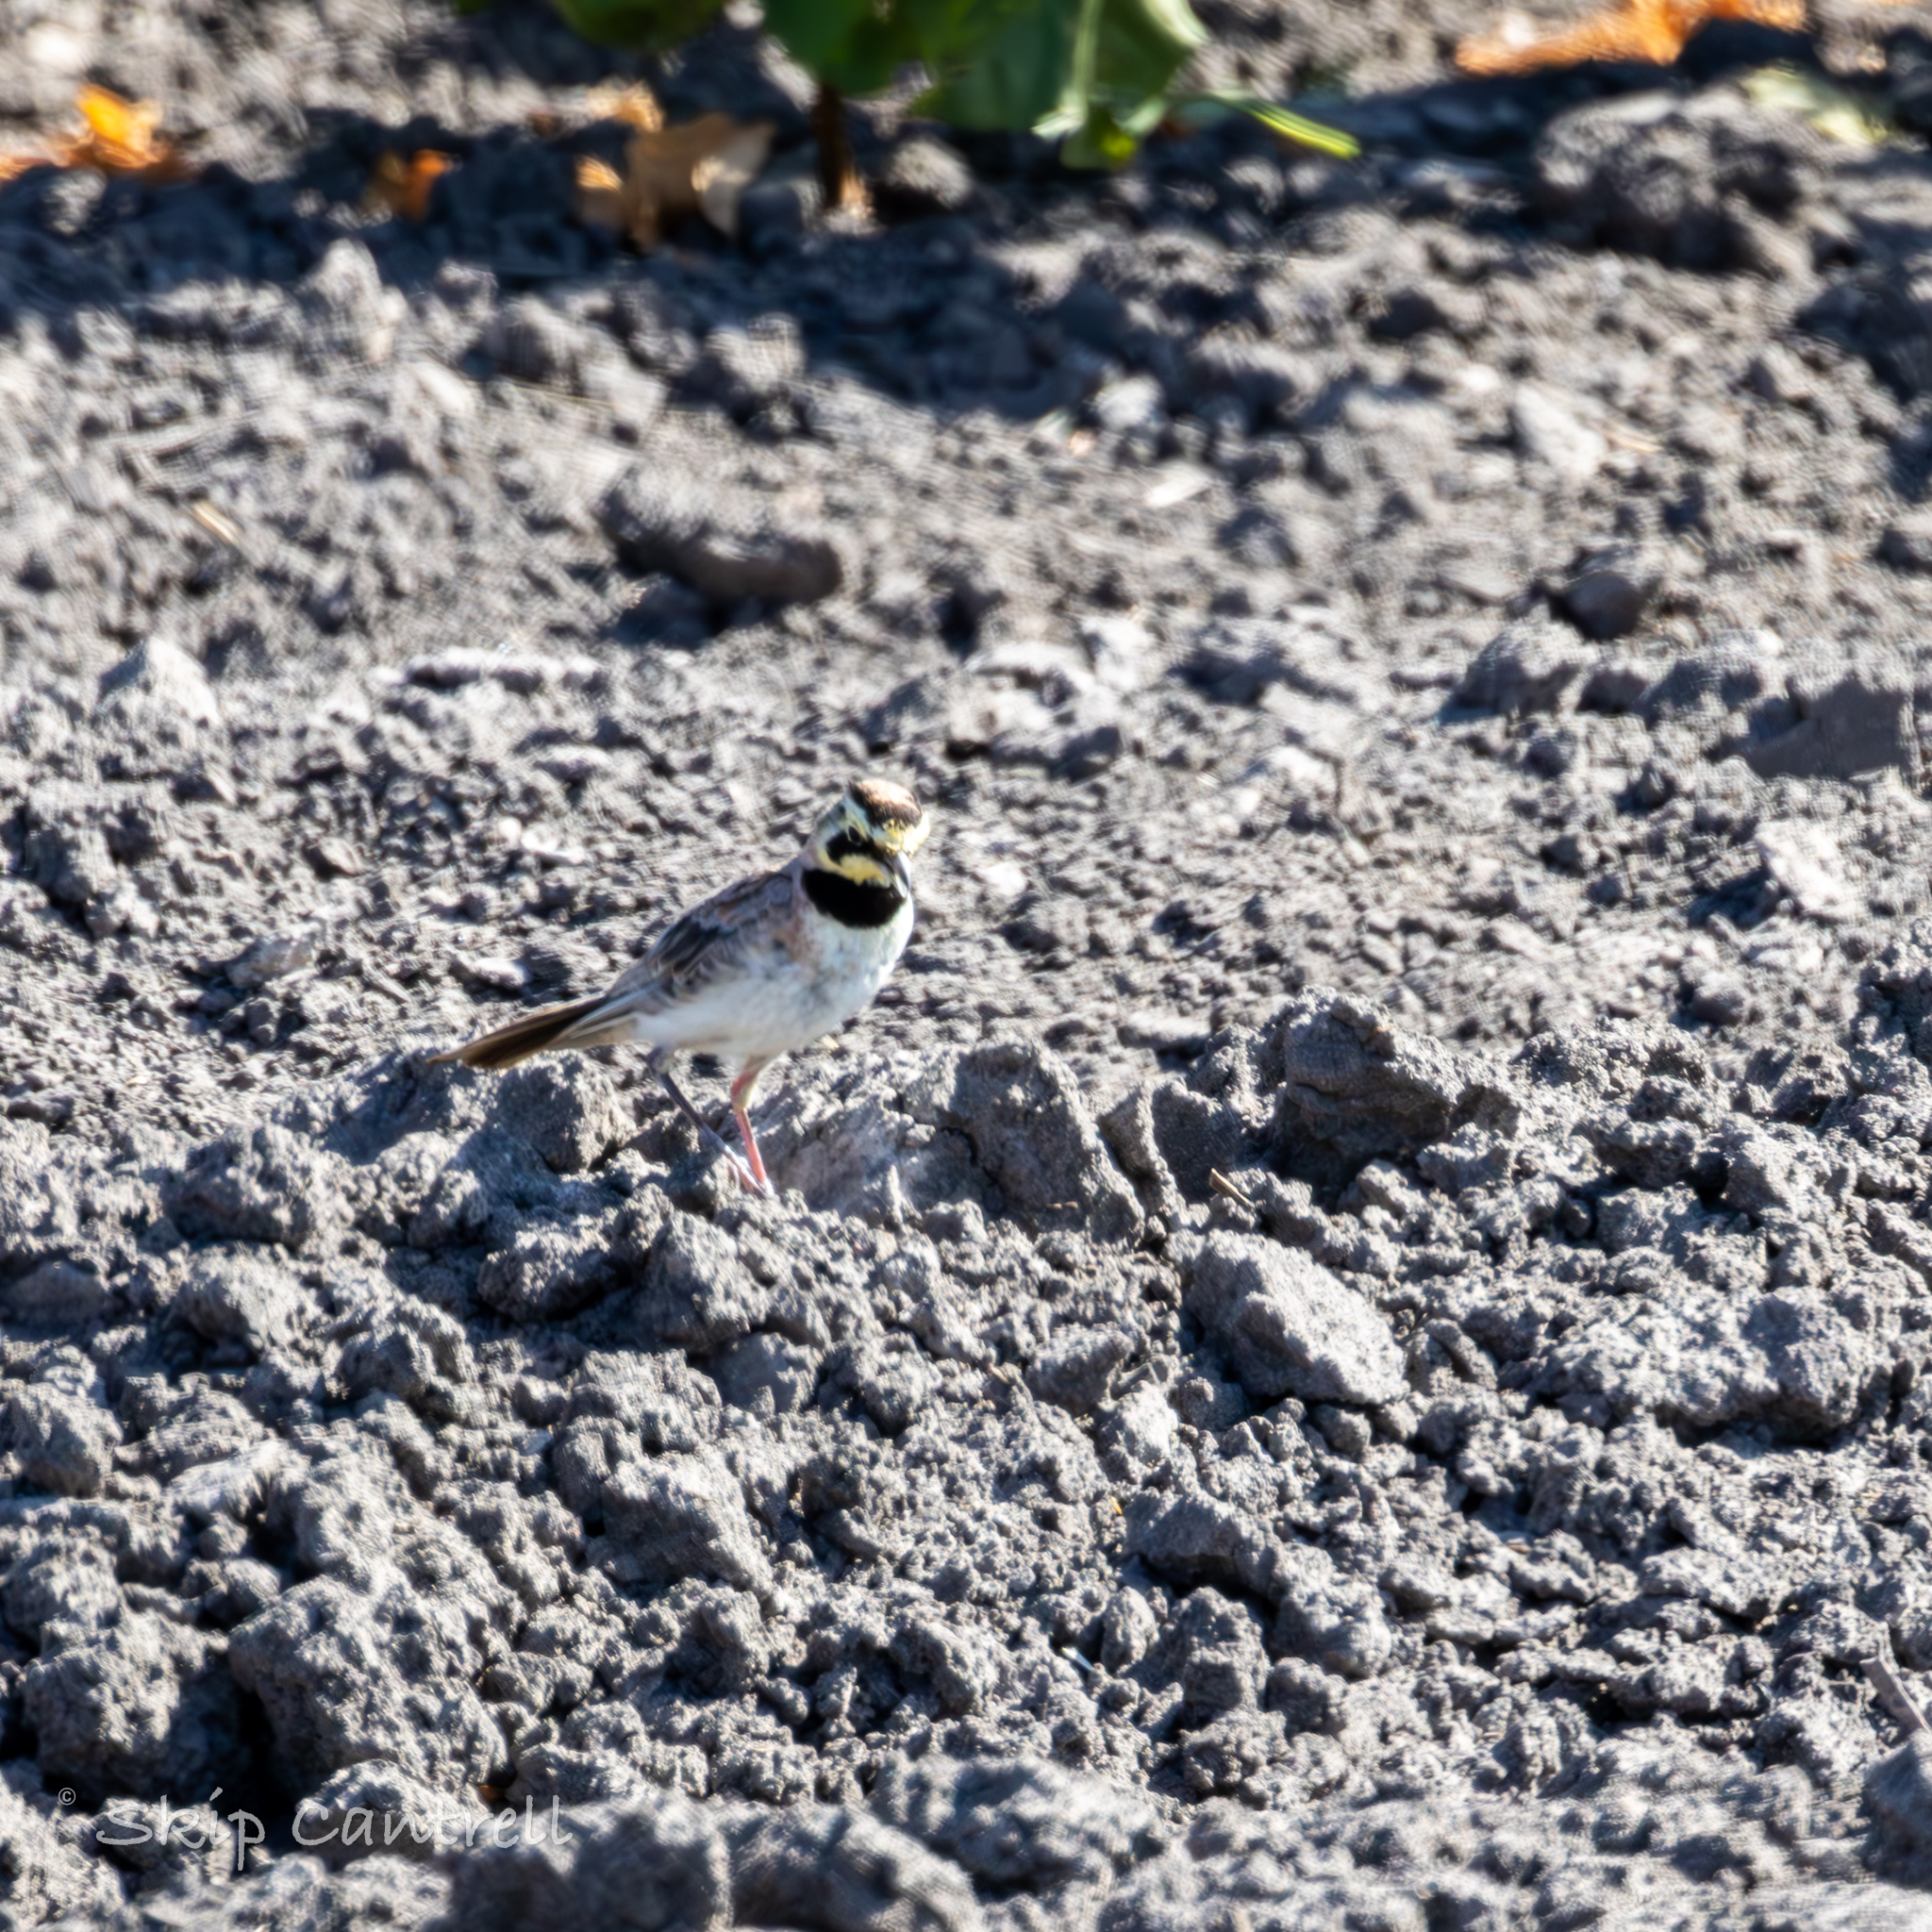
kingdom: Animalia
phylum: Chordata
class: Aves
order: Passeriformes
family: Alaudidae
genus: Eremophila
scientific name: Eremophila alpestris
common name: Horned lark
